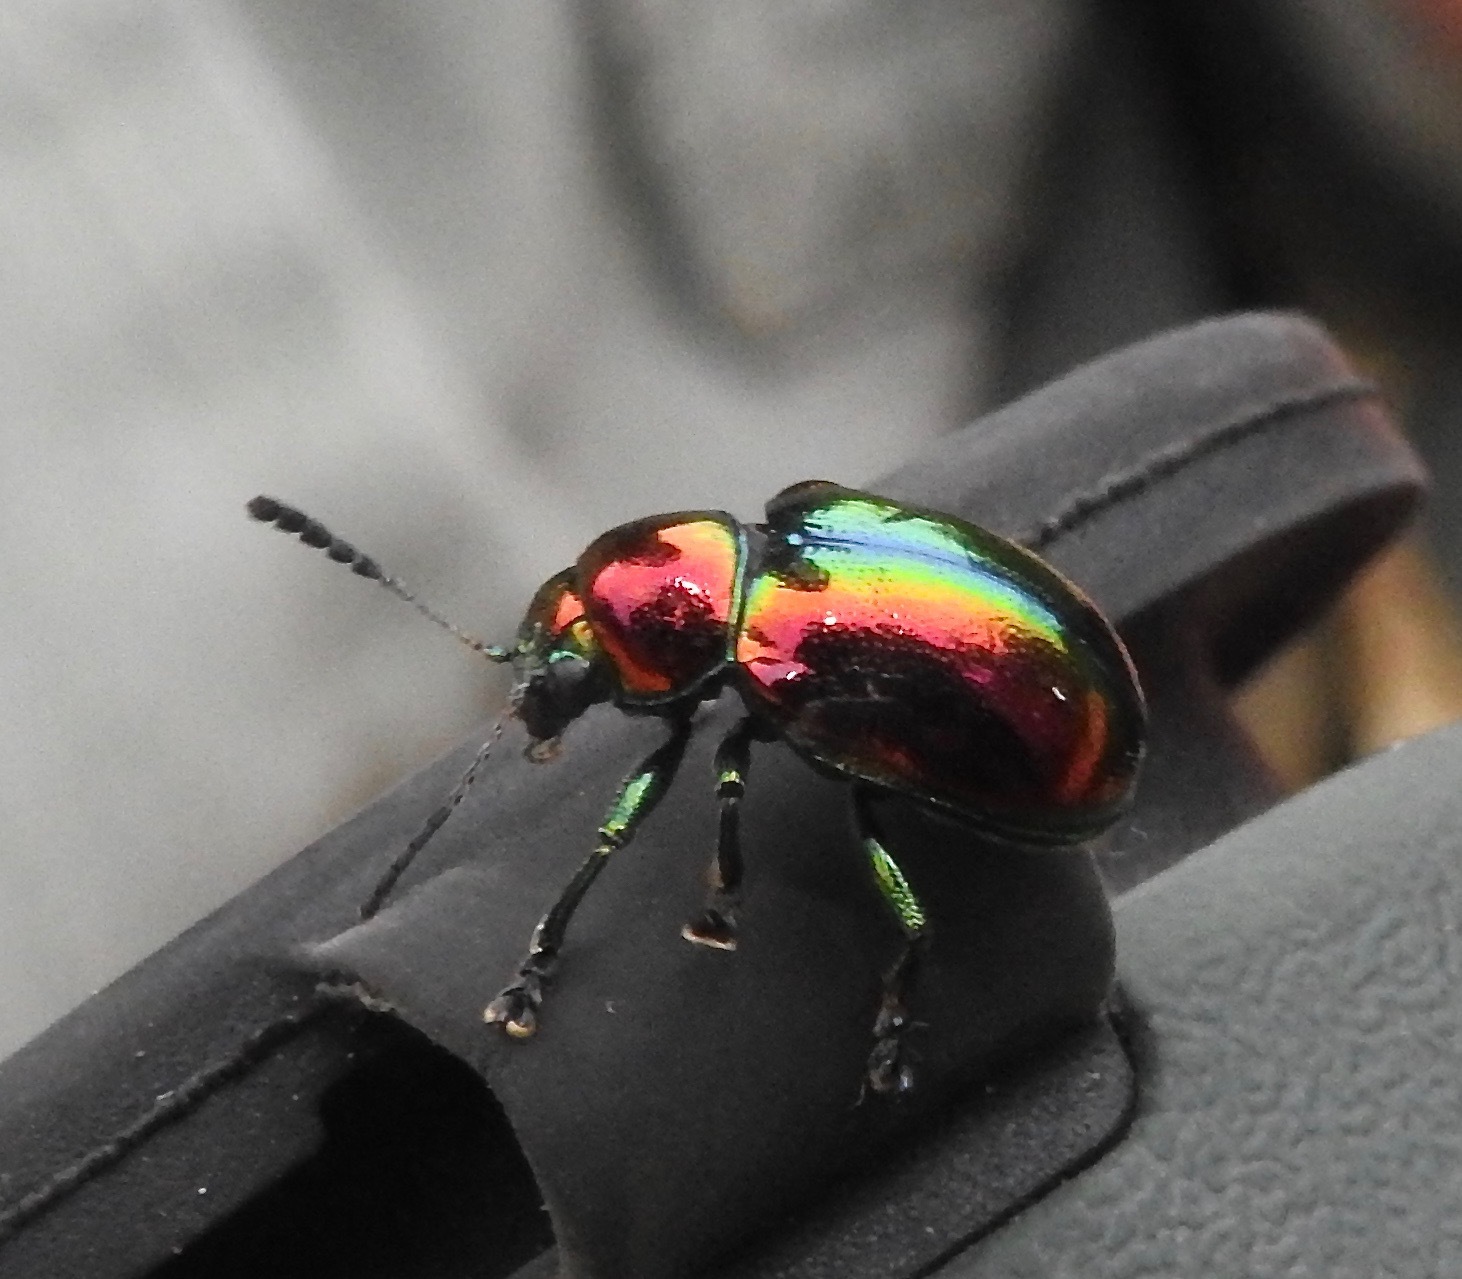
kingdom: Animalia
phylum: Arthropoda
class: Insecta
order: Coleoptera
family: Chrysomelidae
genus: Platycorynus
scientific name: Platycorynus
